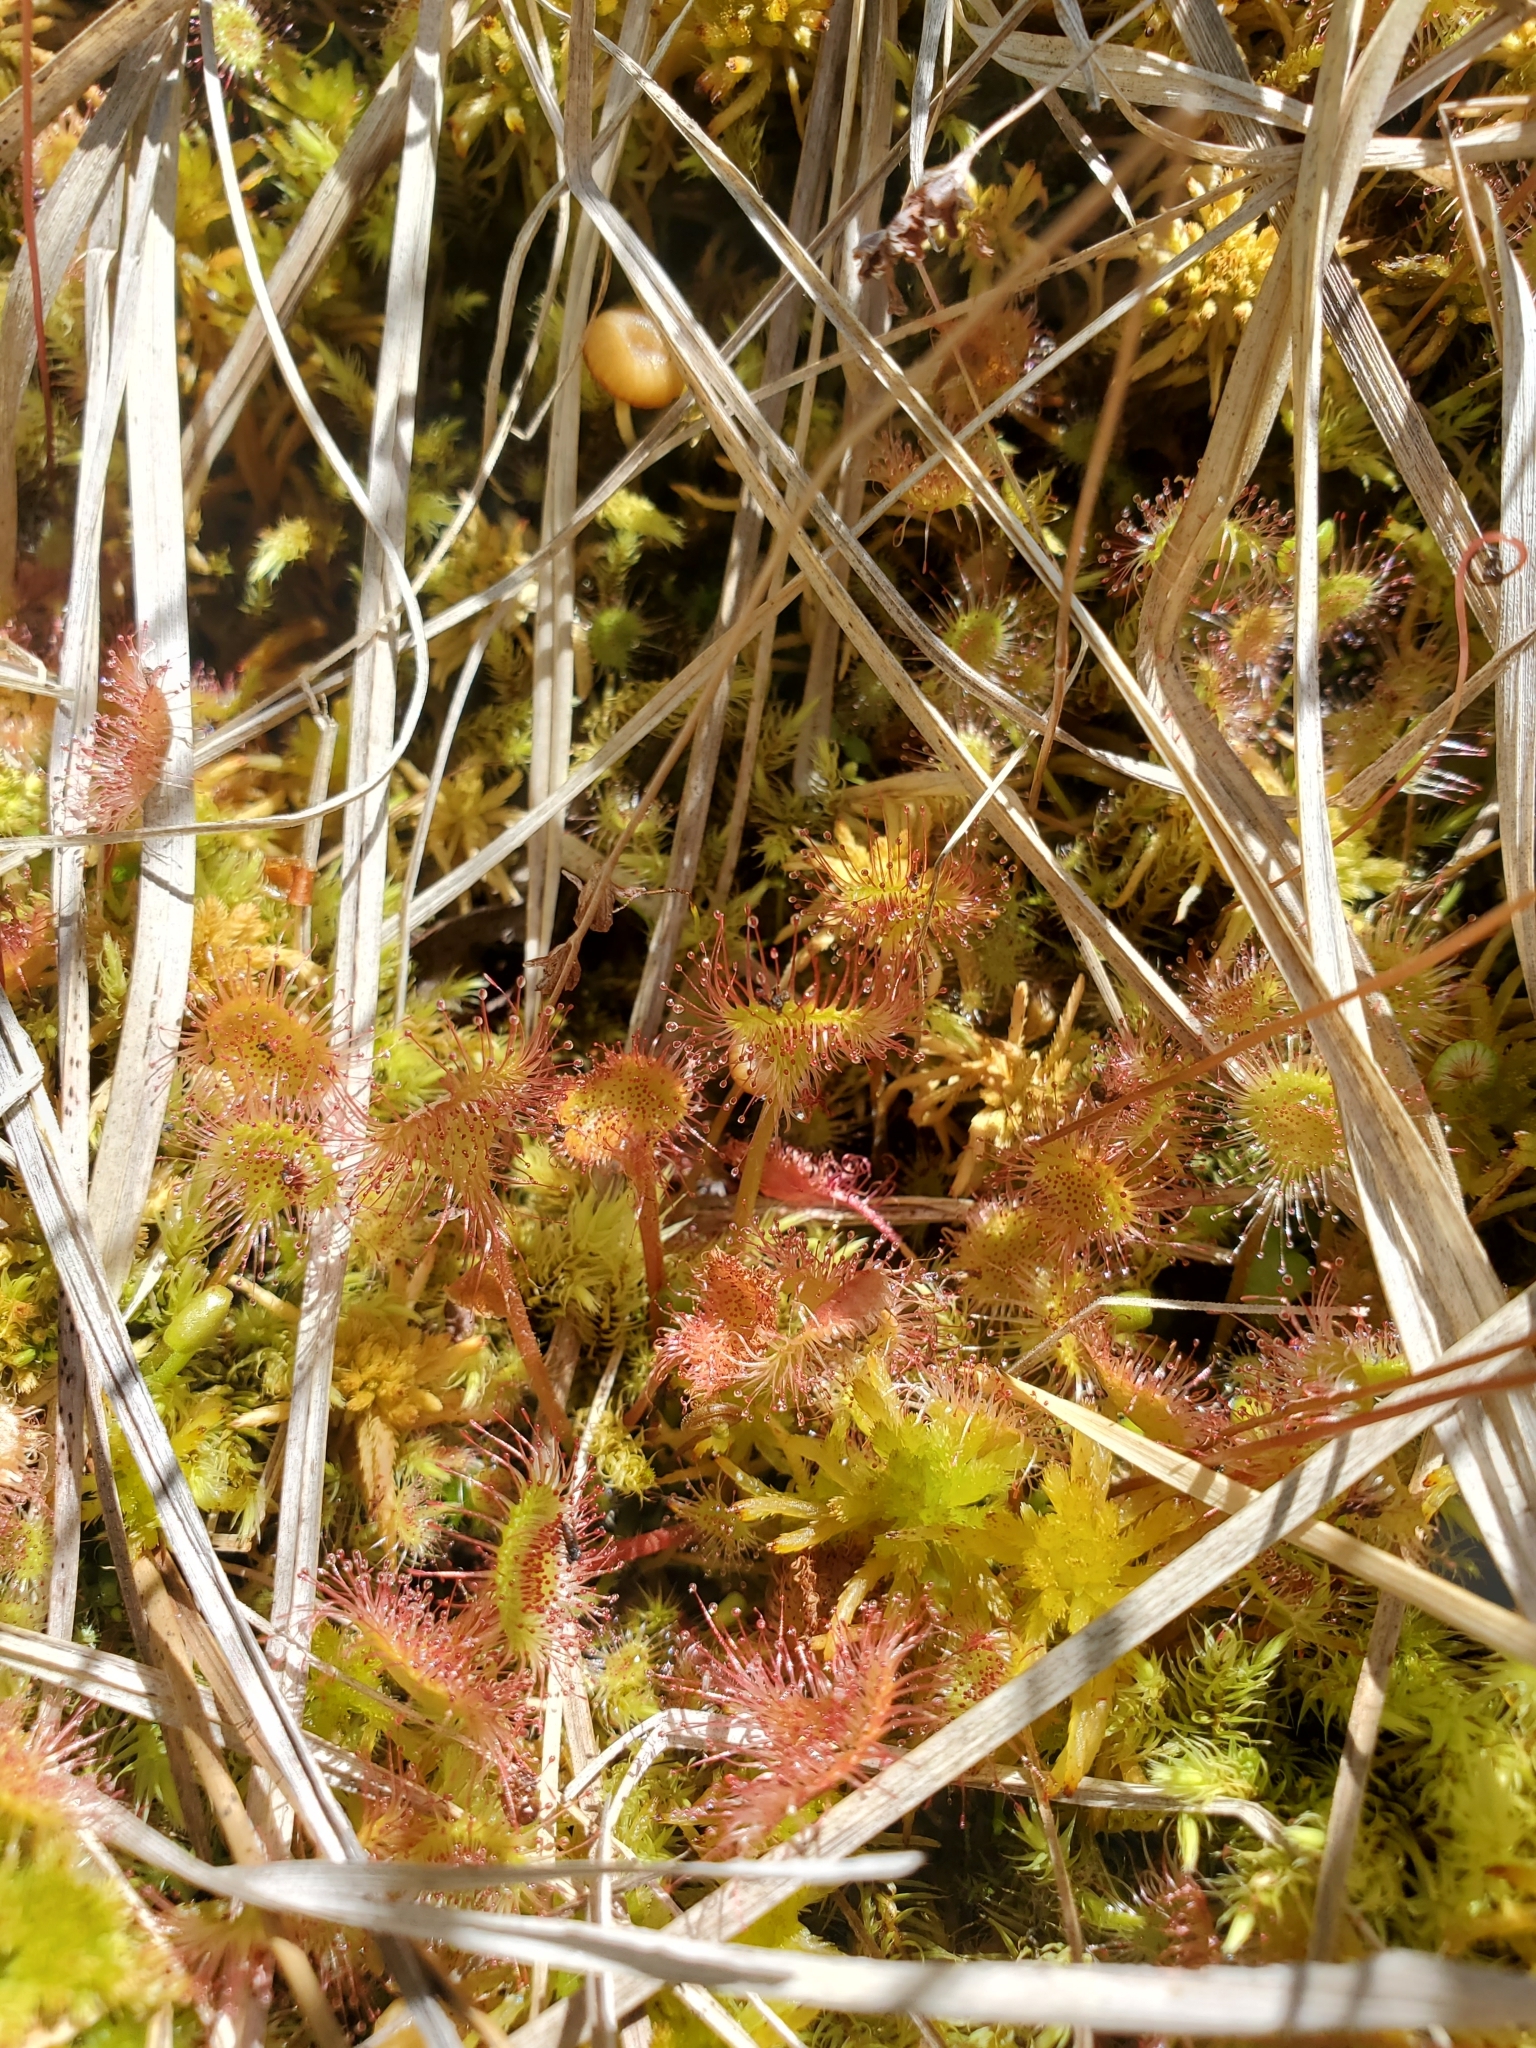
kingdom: Plantae
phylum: Tracheophyta
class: Magnoliopsida
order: Caryophyllales
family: Droseraceae
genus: Drosera
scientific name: Drosera rotundifolia
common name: Round-leaved sundew
